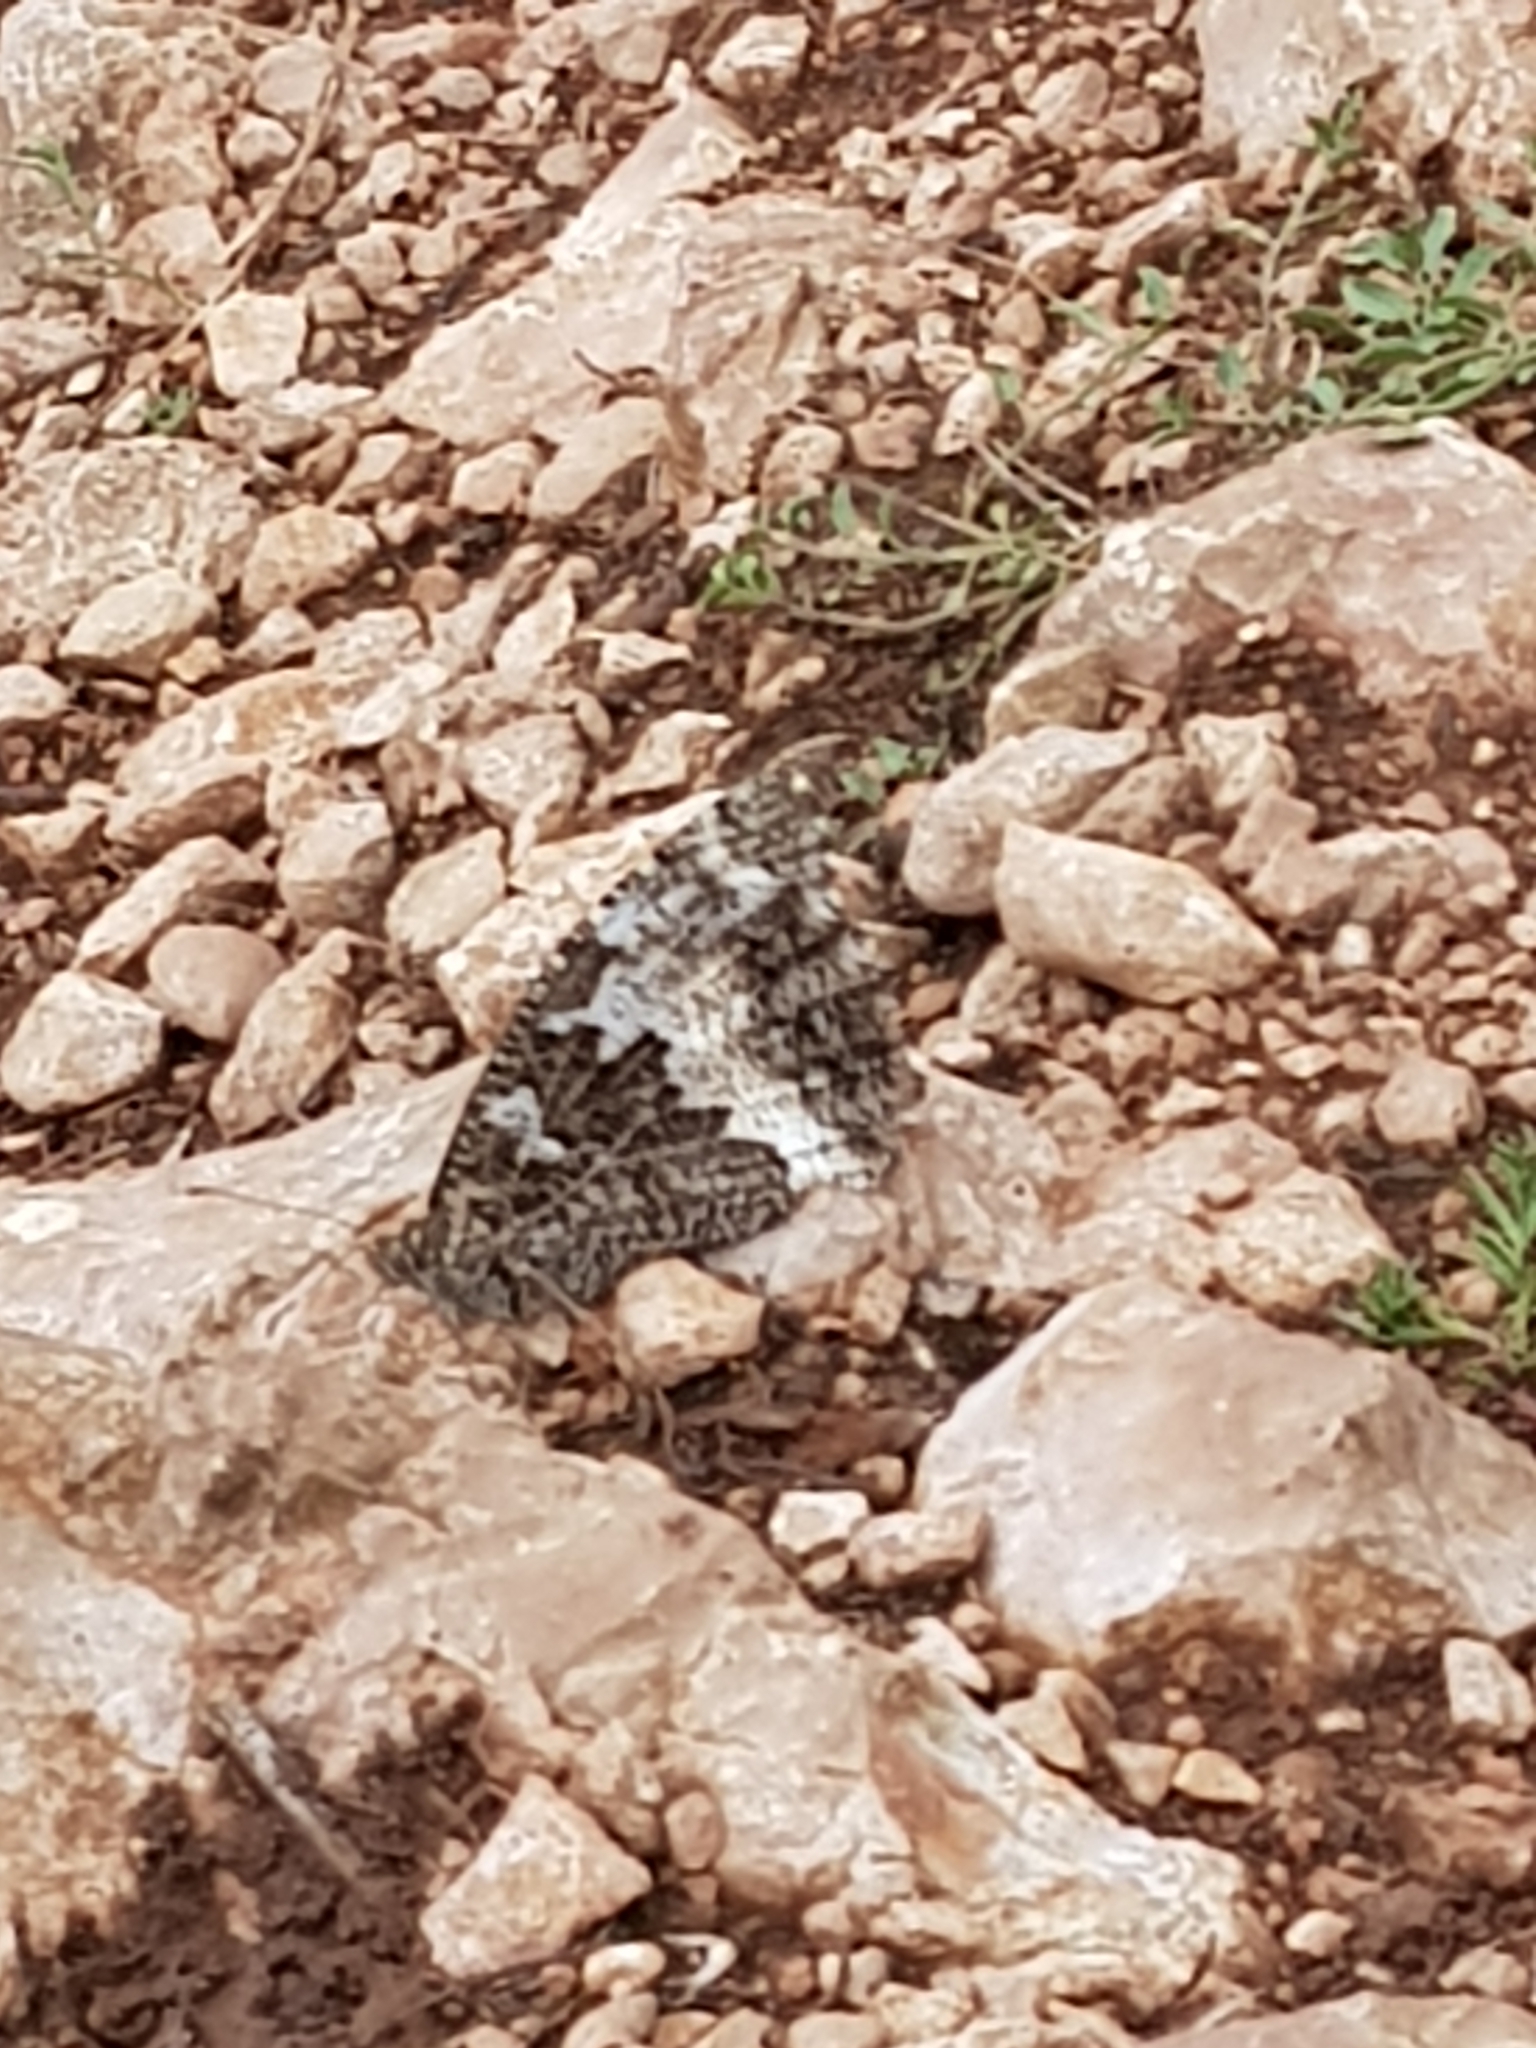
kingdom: Animalia
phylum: Arthropoda
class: Insecta
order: Lepidoptera
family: Lycaenidae
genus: Loweia
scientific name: Loweia tityrus
